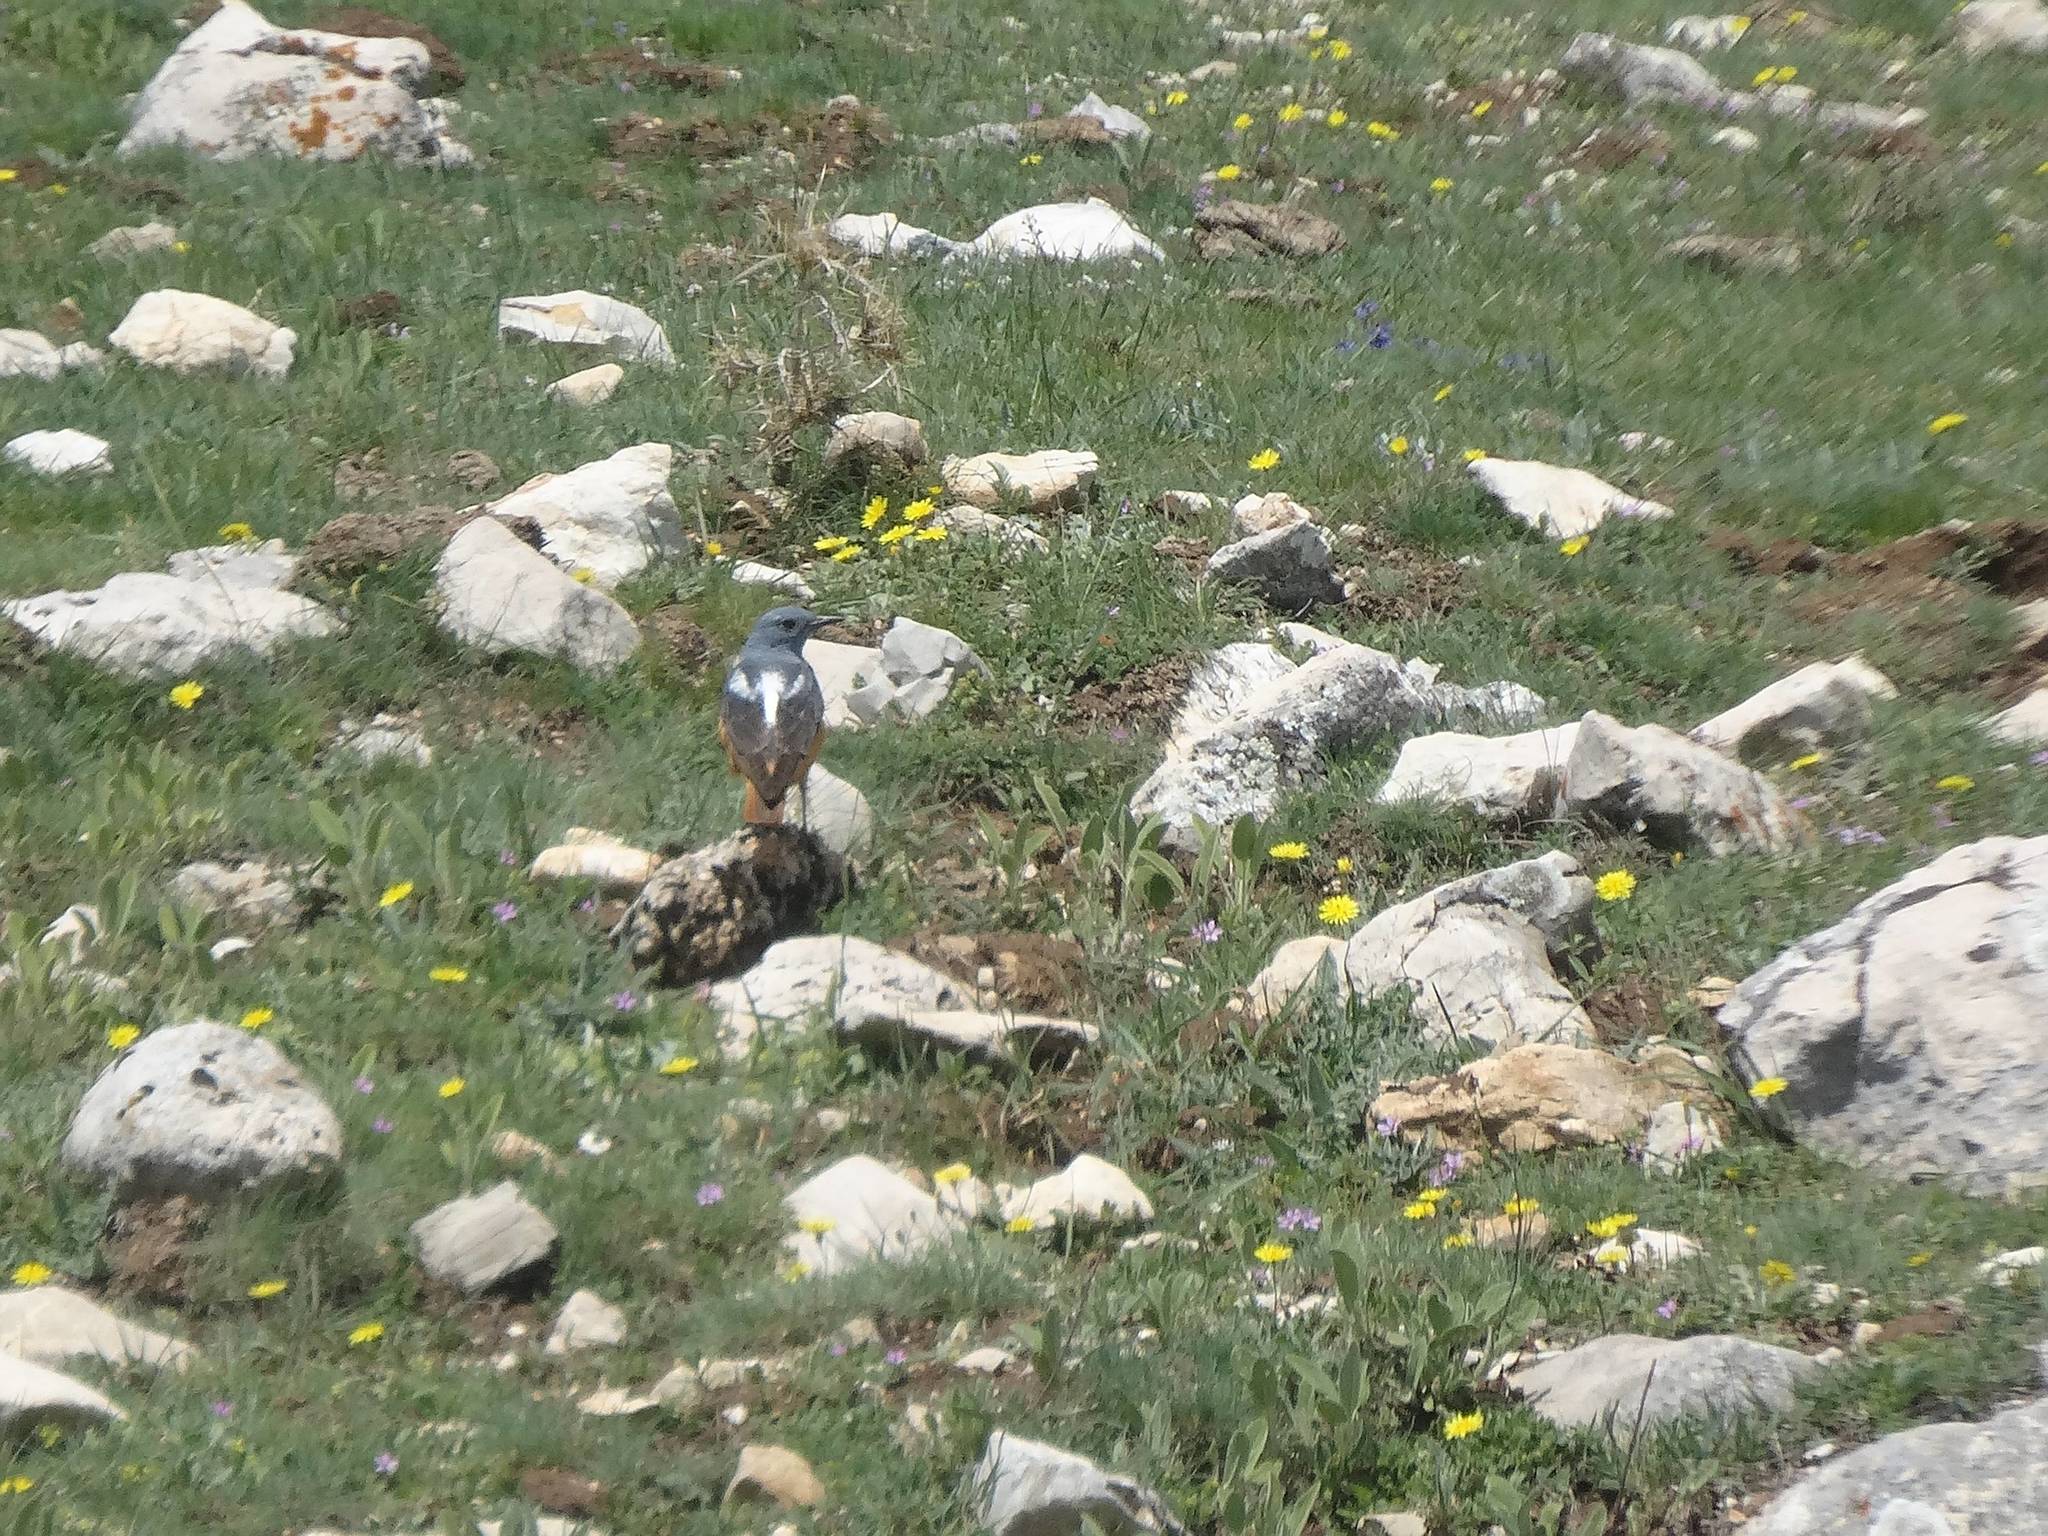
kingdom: Animalia
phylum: Chordata
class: Aves
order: Passeriformes
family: Muscicapidae
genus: Monticola
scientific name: Monticola saxatilis
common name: Rufous-tailed rock thrush
